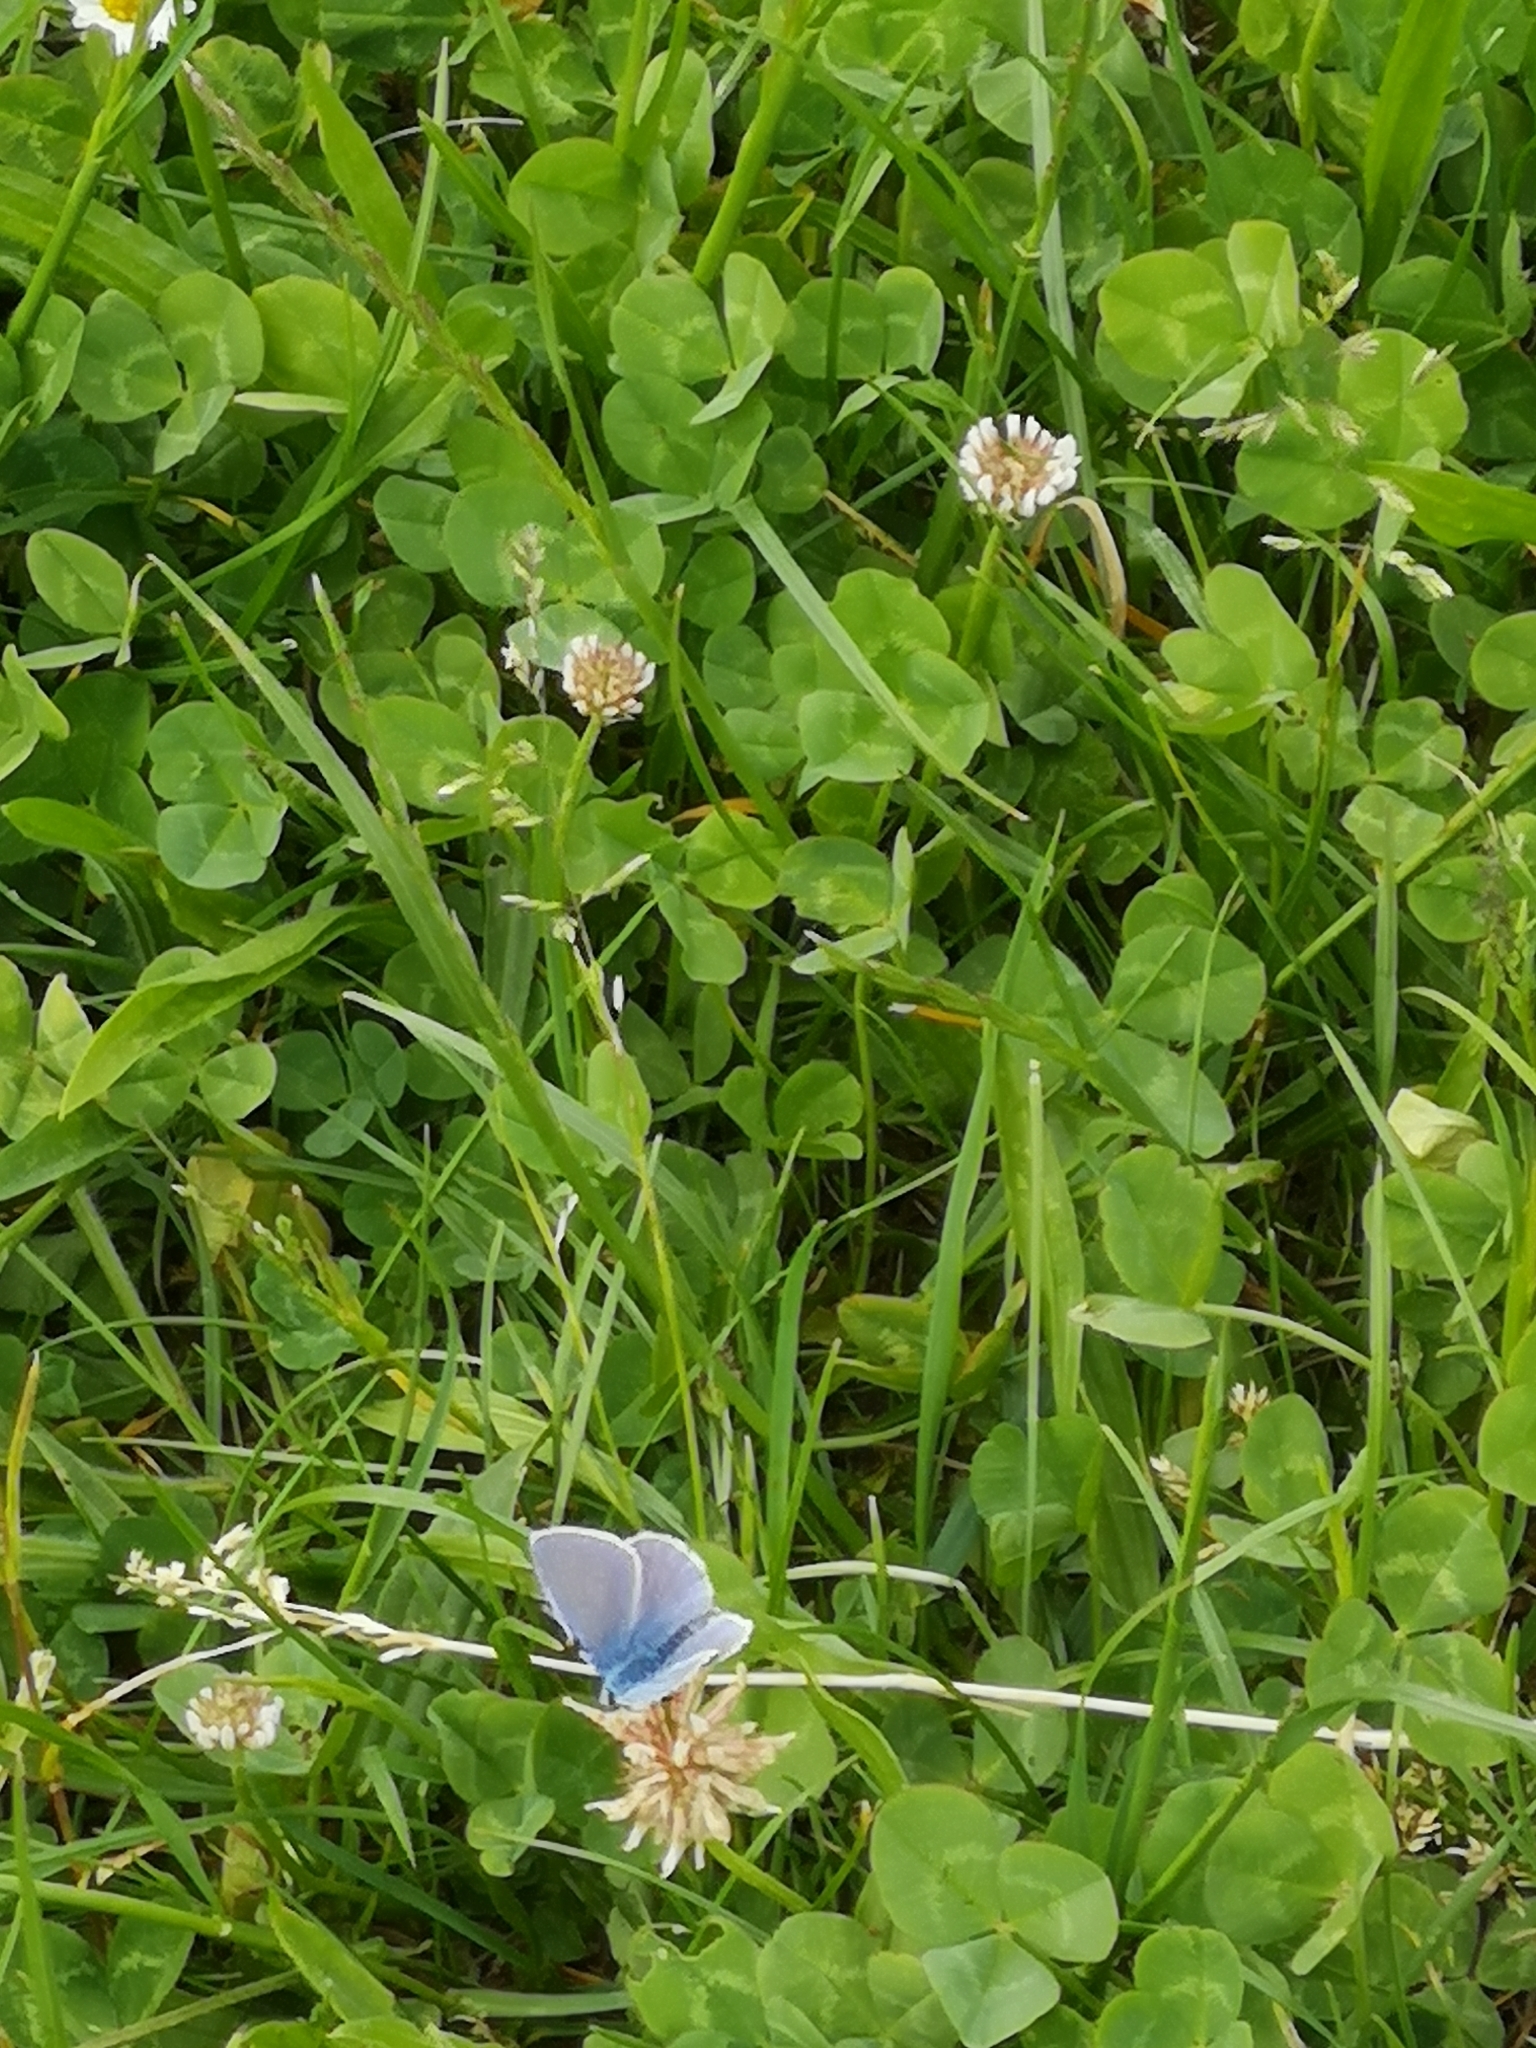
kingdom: Animalia
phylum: Arthropoda
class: Insecta
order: Lepidoptera
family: Lycaenidae
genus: Polyommatus
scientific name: Polyommatus icarus
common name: Common blue
